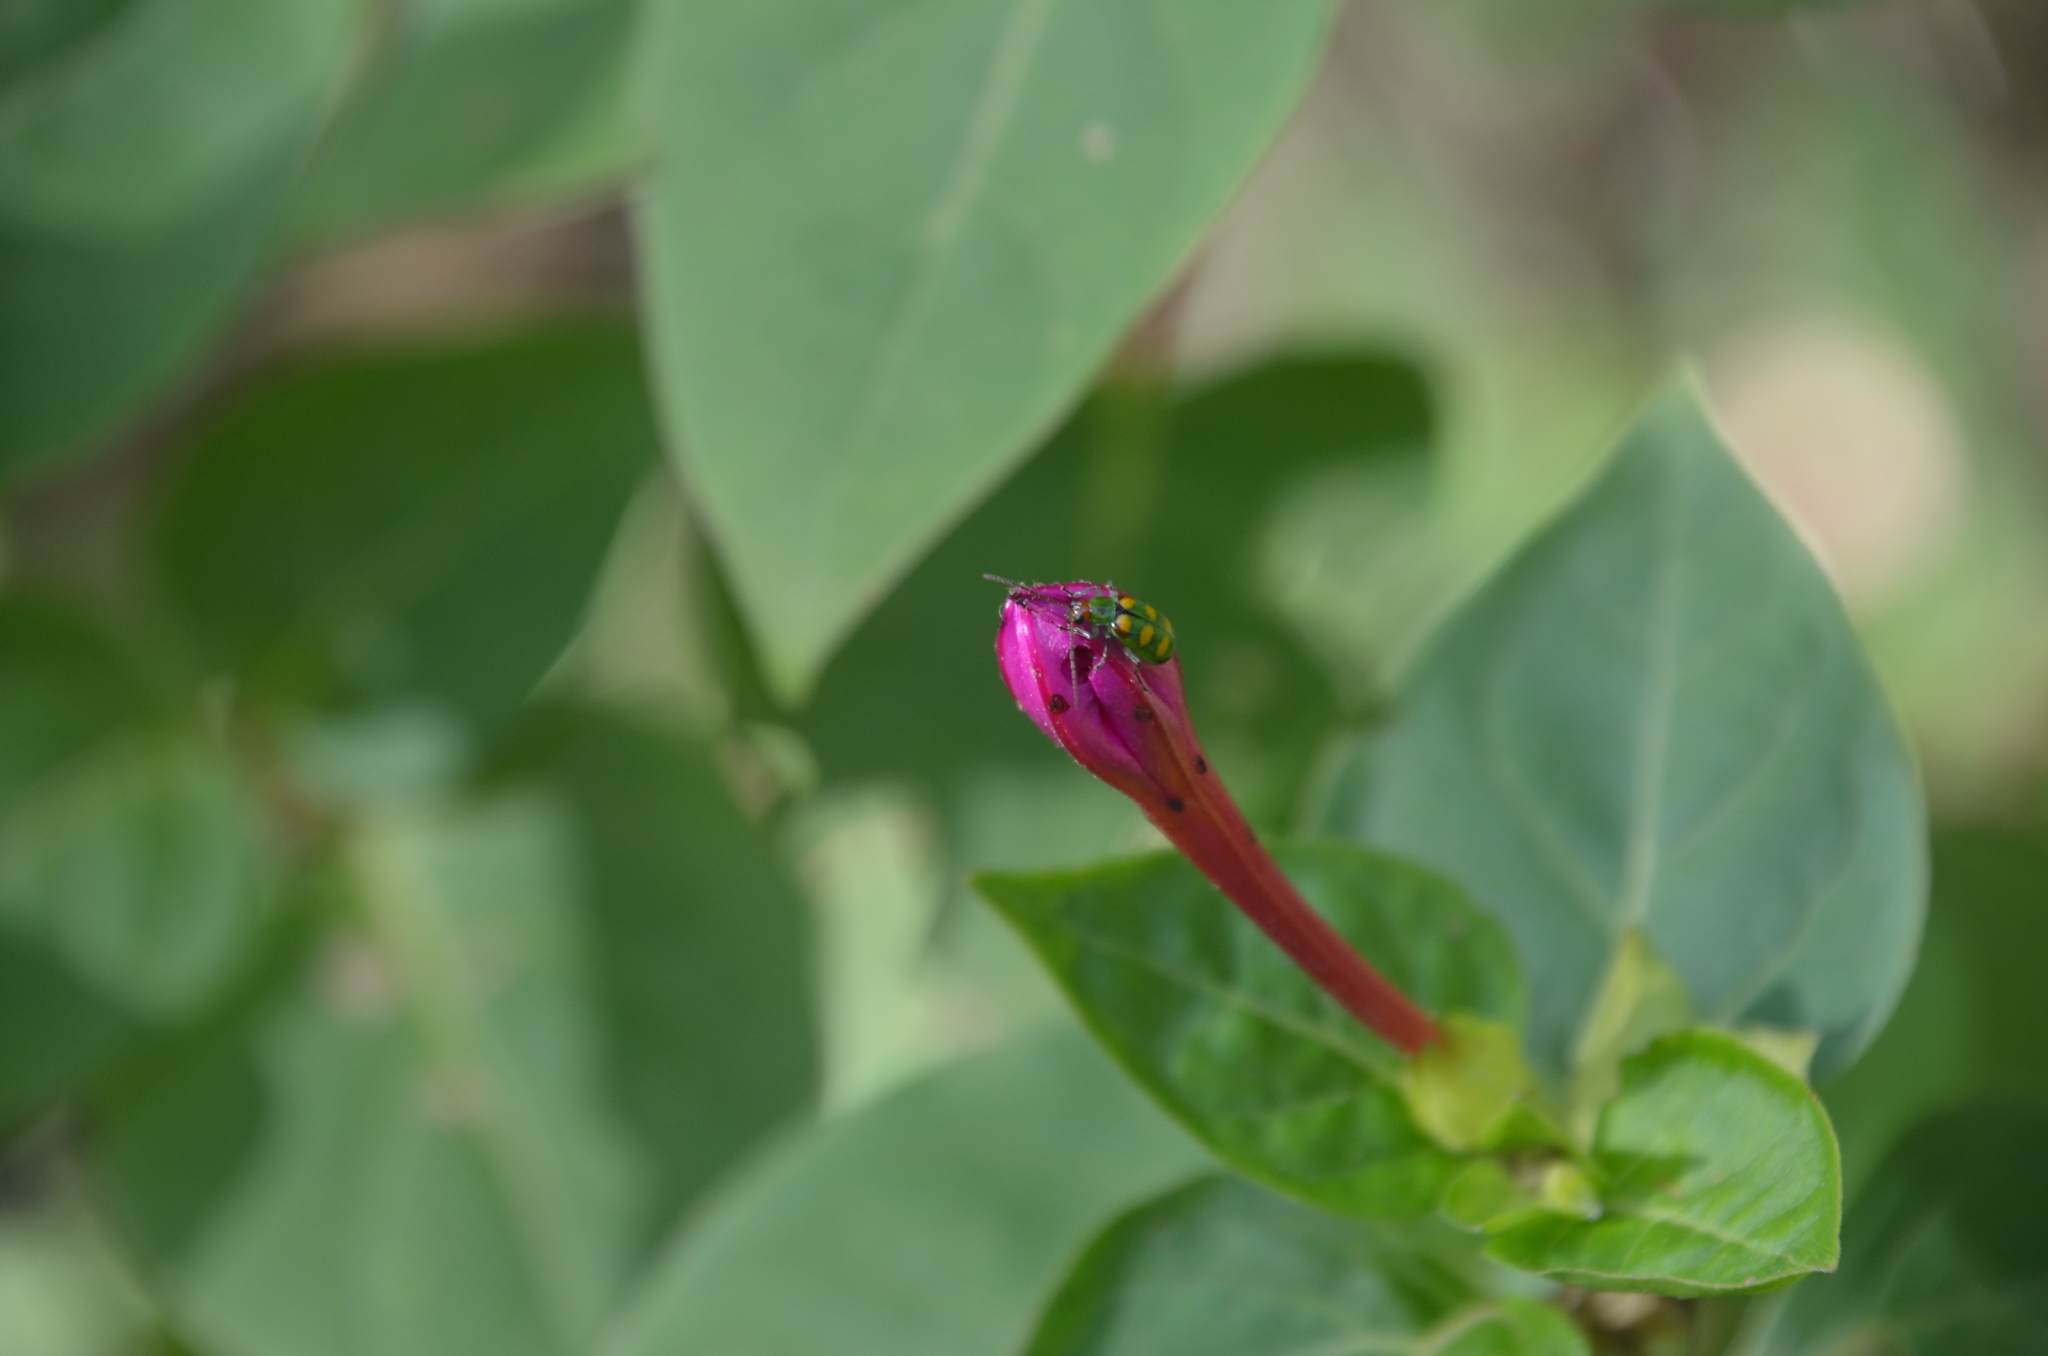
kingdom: Animalia
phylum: Arthropoda
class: Insecta
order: Coleoptera
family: Chrysomelidae
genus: Diabrotica
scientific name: Diabrotica speciosa
